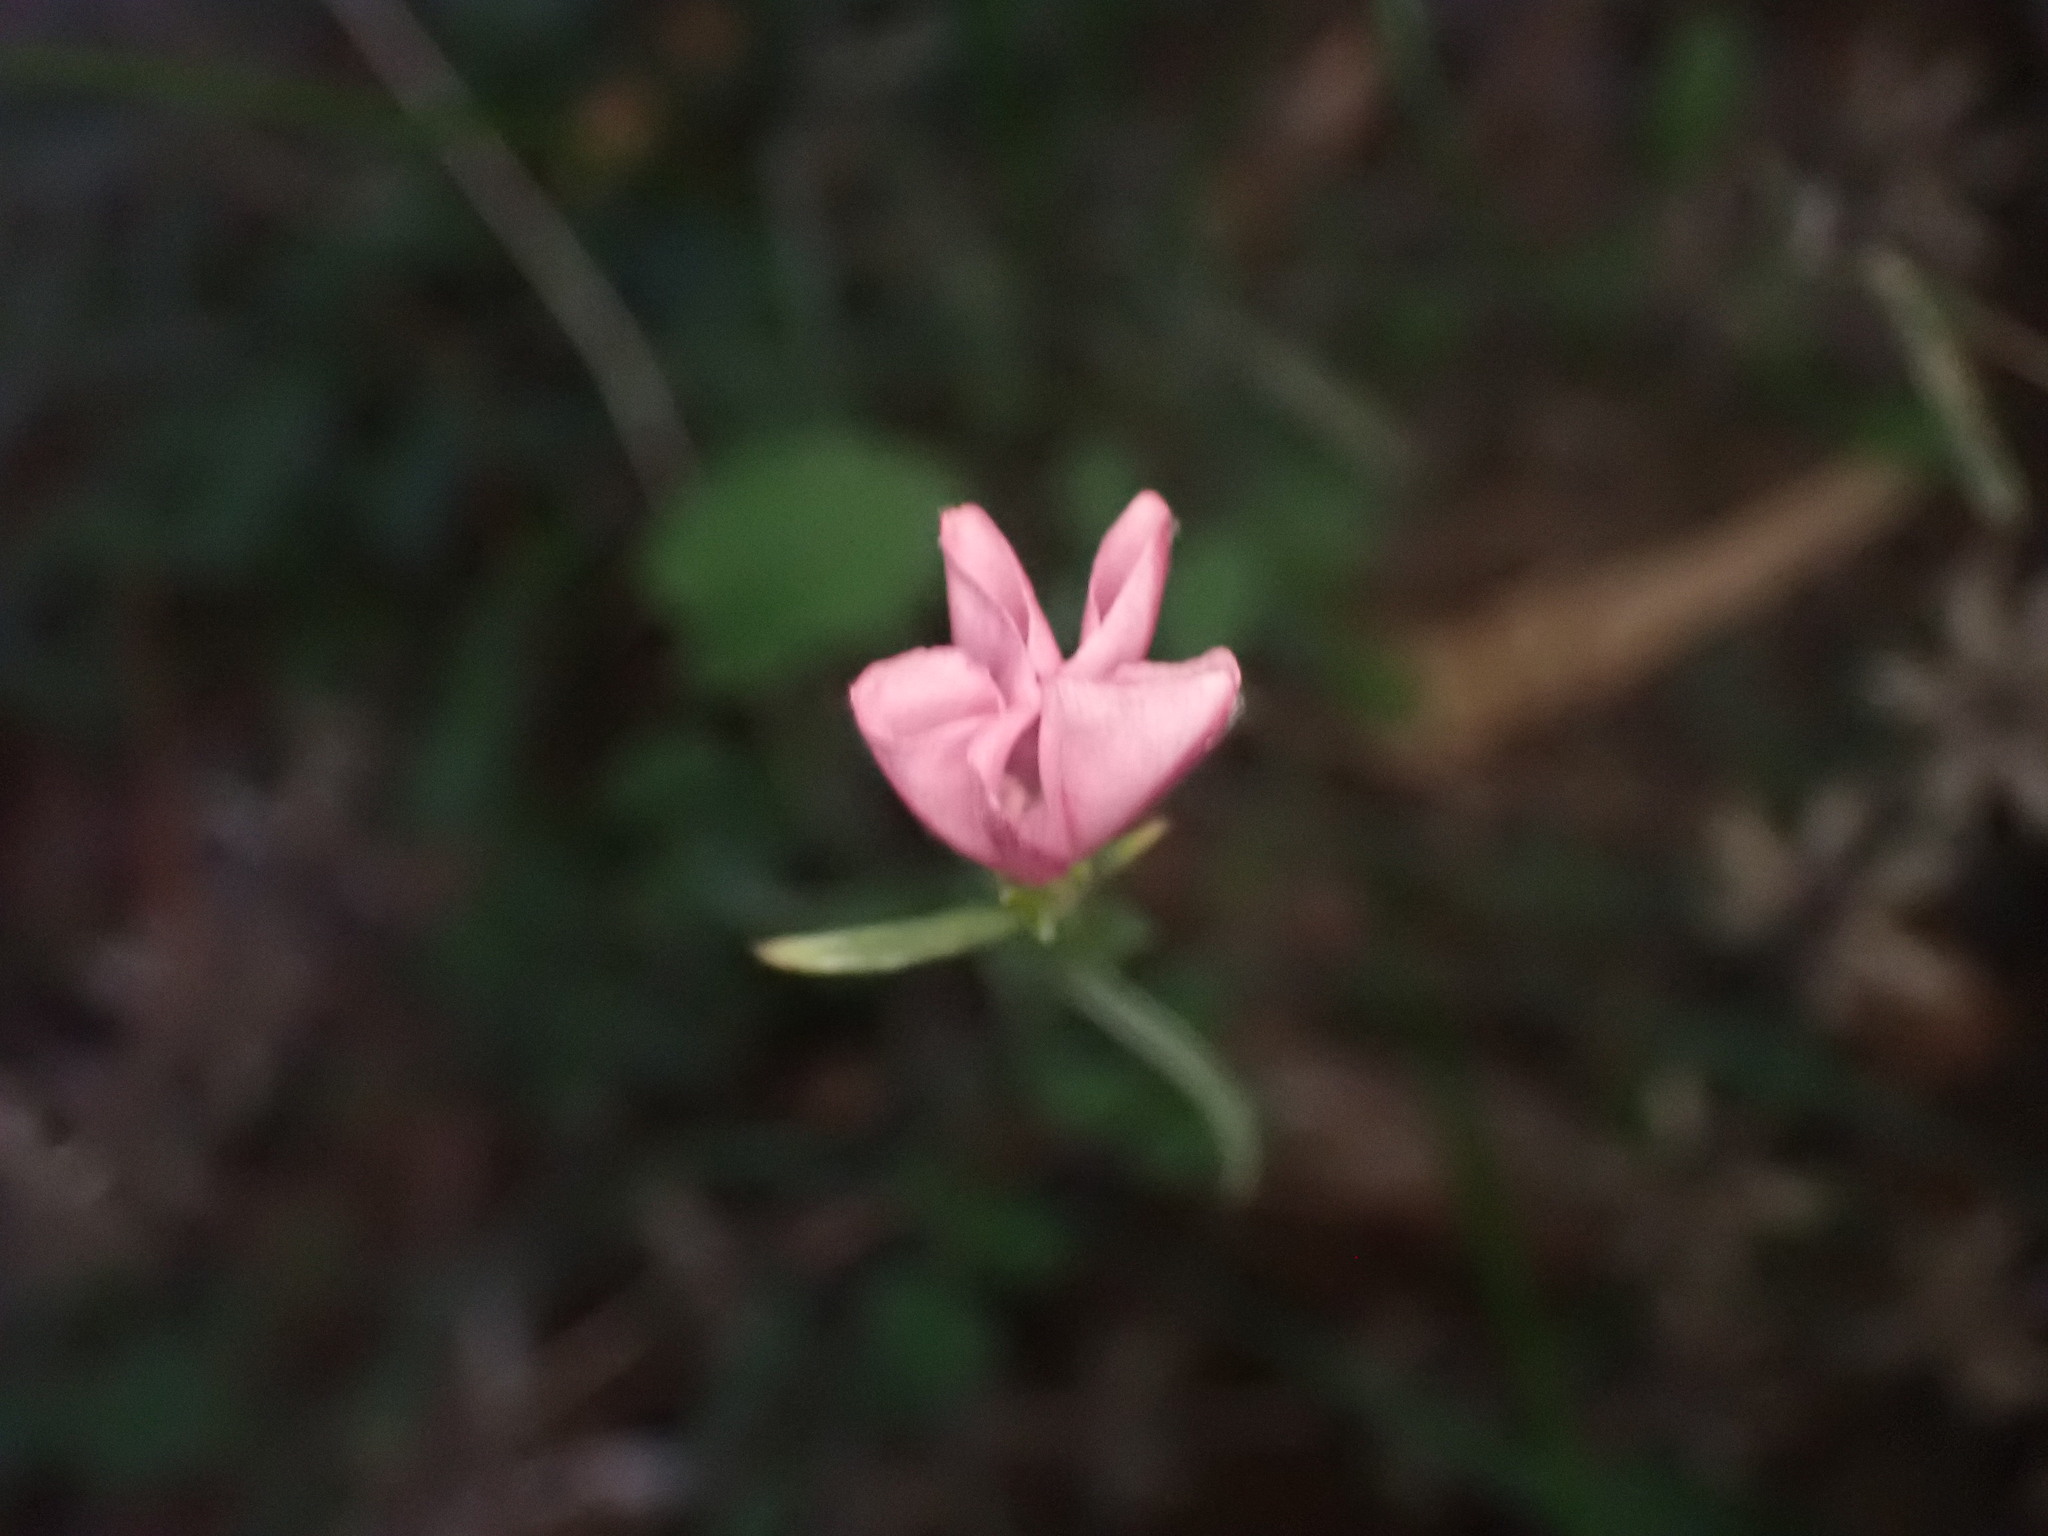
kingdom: Plantae
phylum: Tracheophyta
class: Magnoliopsida
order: Solanales
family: Convolvulaceae
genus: Convolvulus
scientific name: Convolvulus cantabrica
